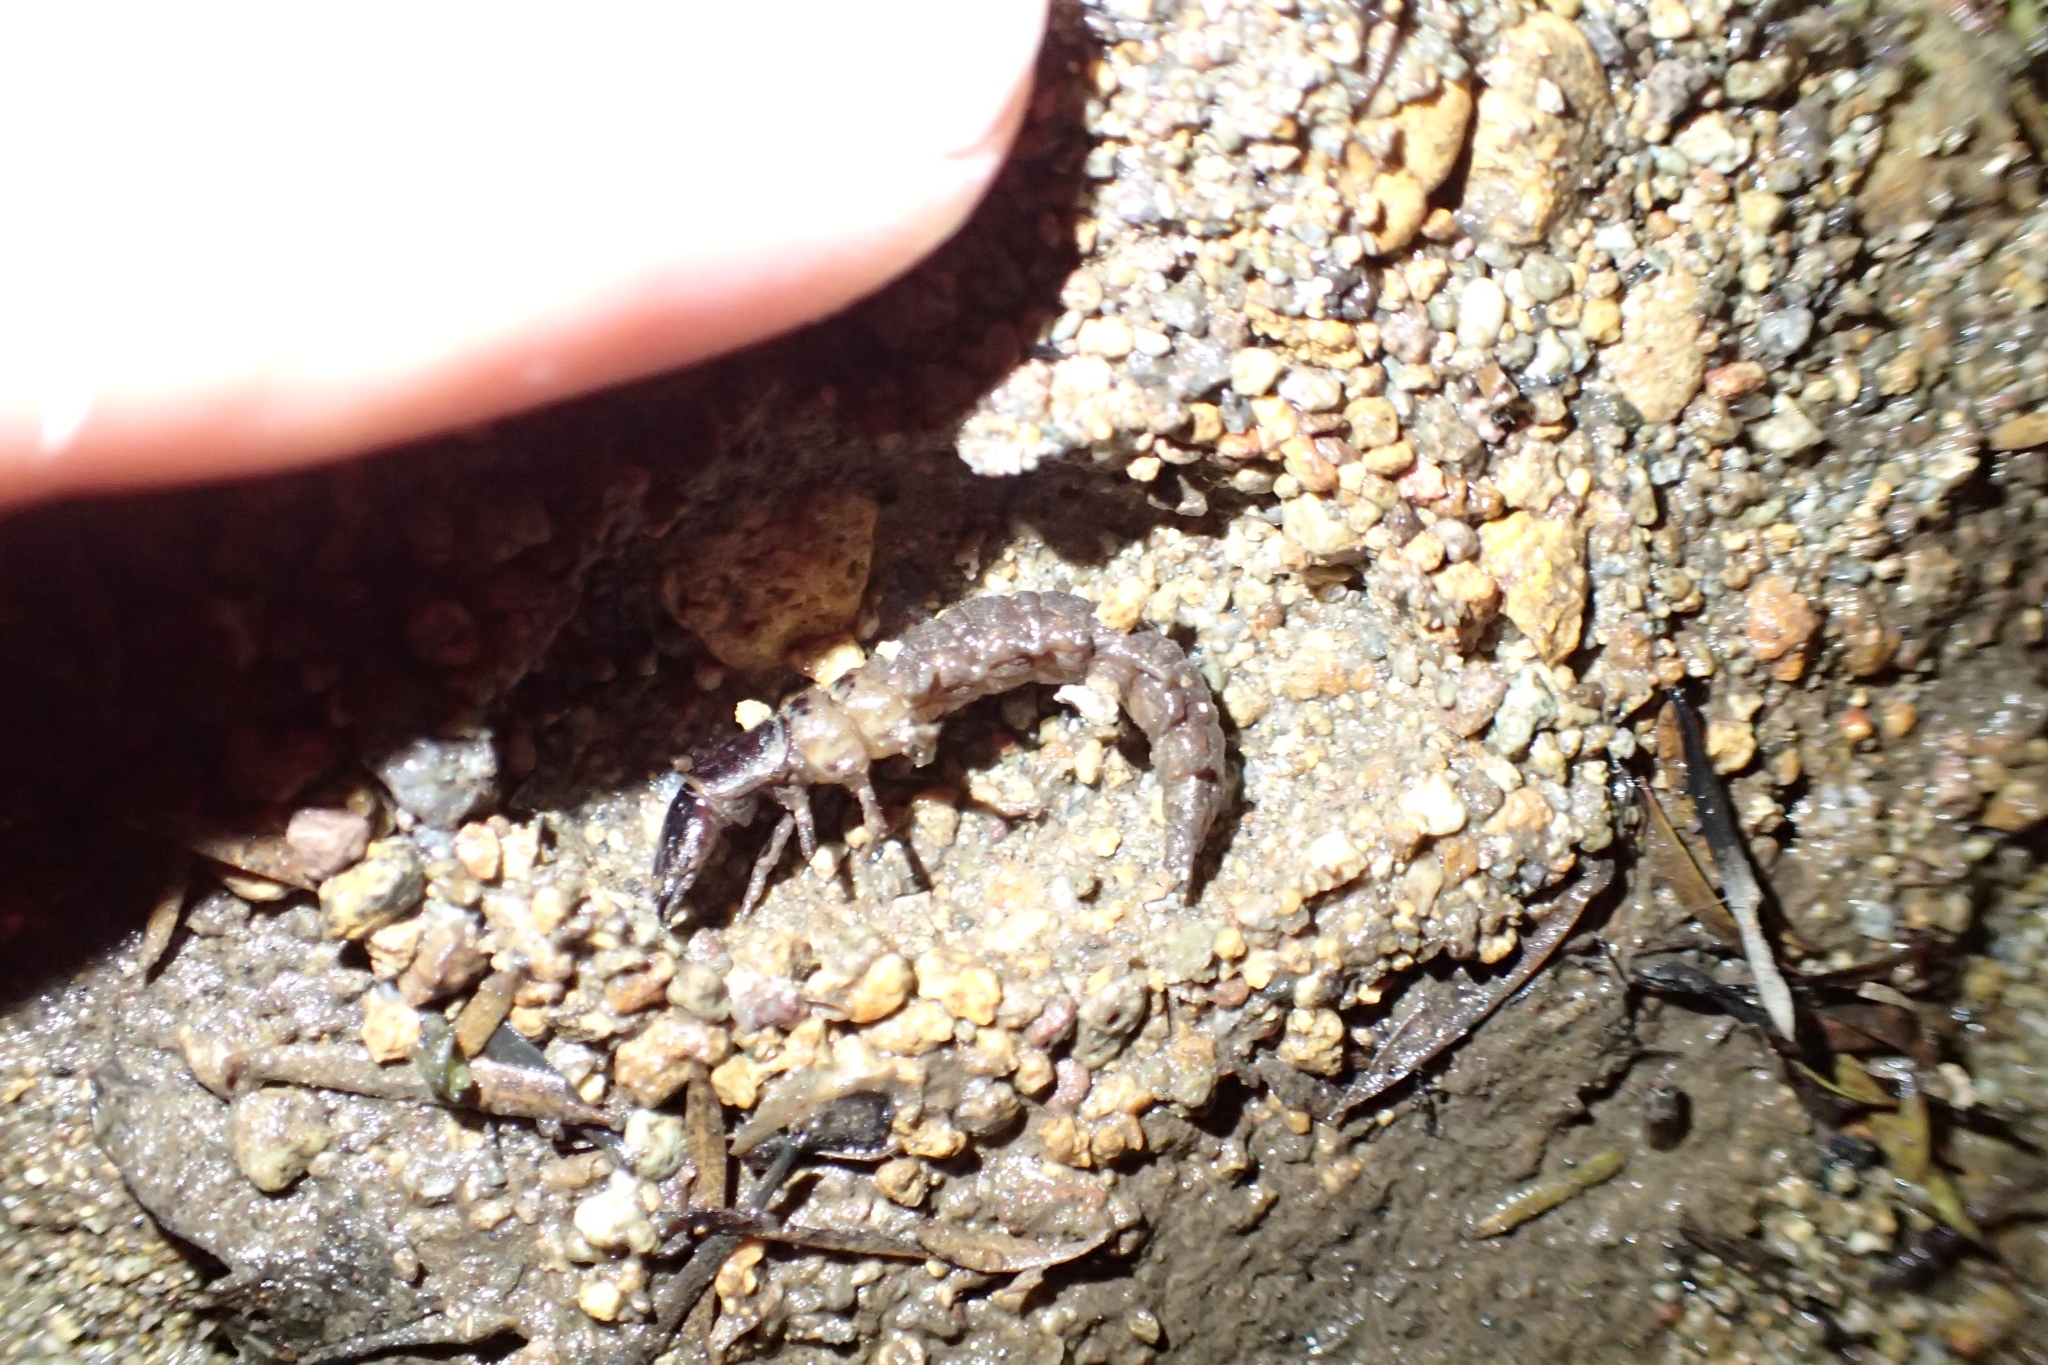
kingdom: Animalia
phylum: Arthropoda
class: Insecta
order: Megaloptera
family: Corydalidae
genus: Archichauliodes
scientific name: Archichauliodes diversus
